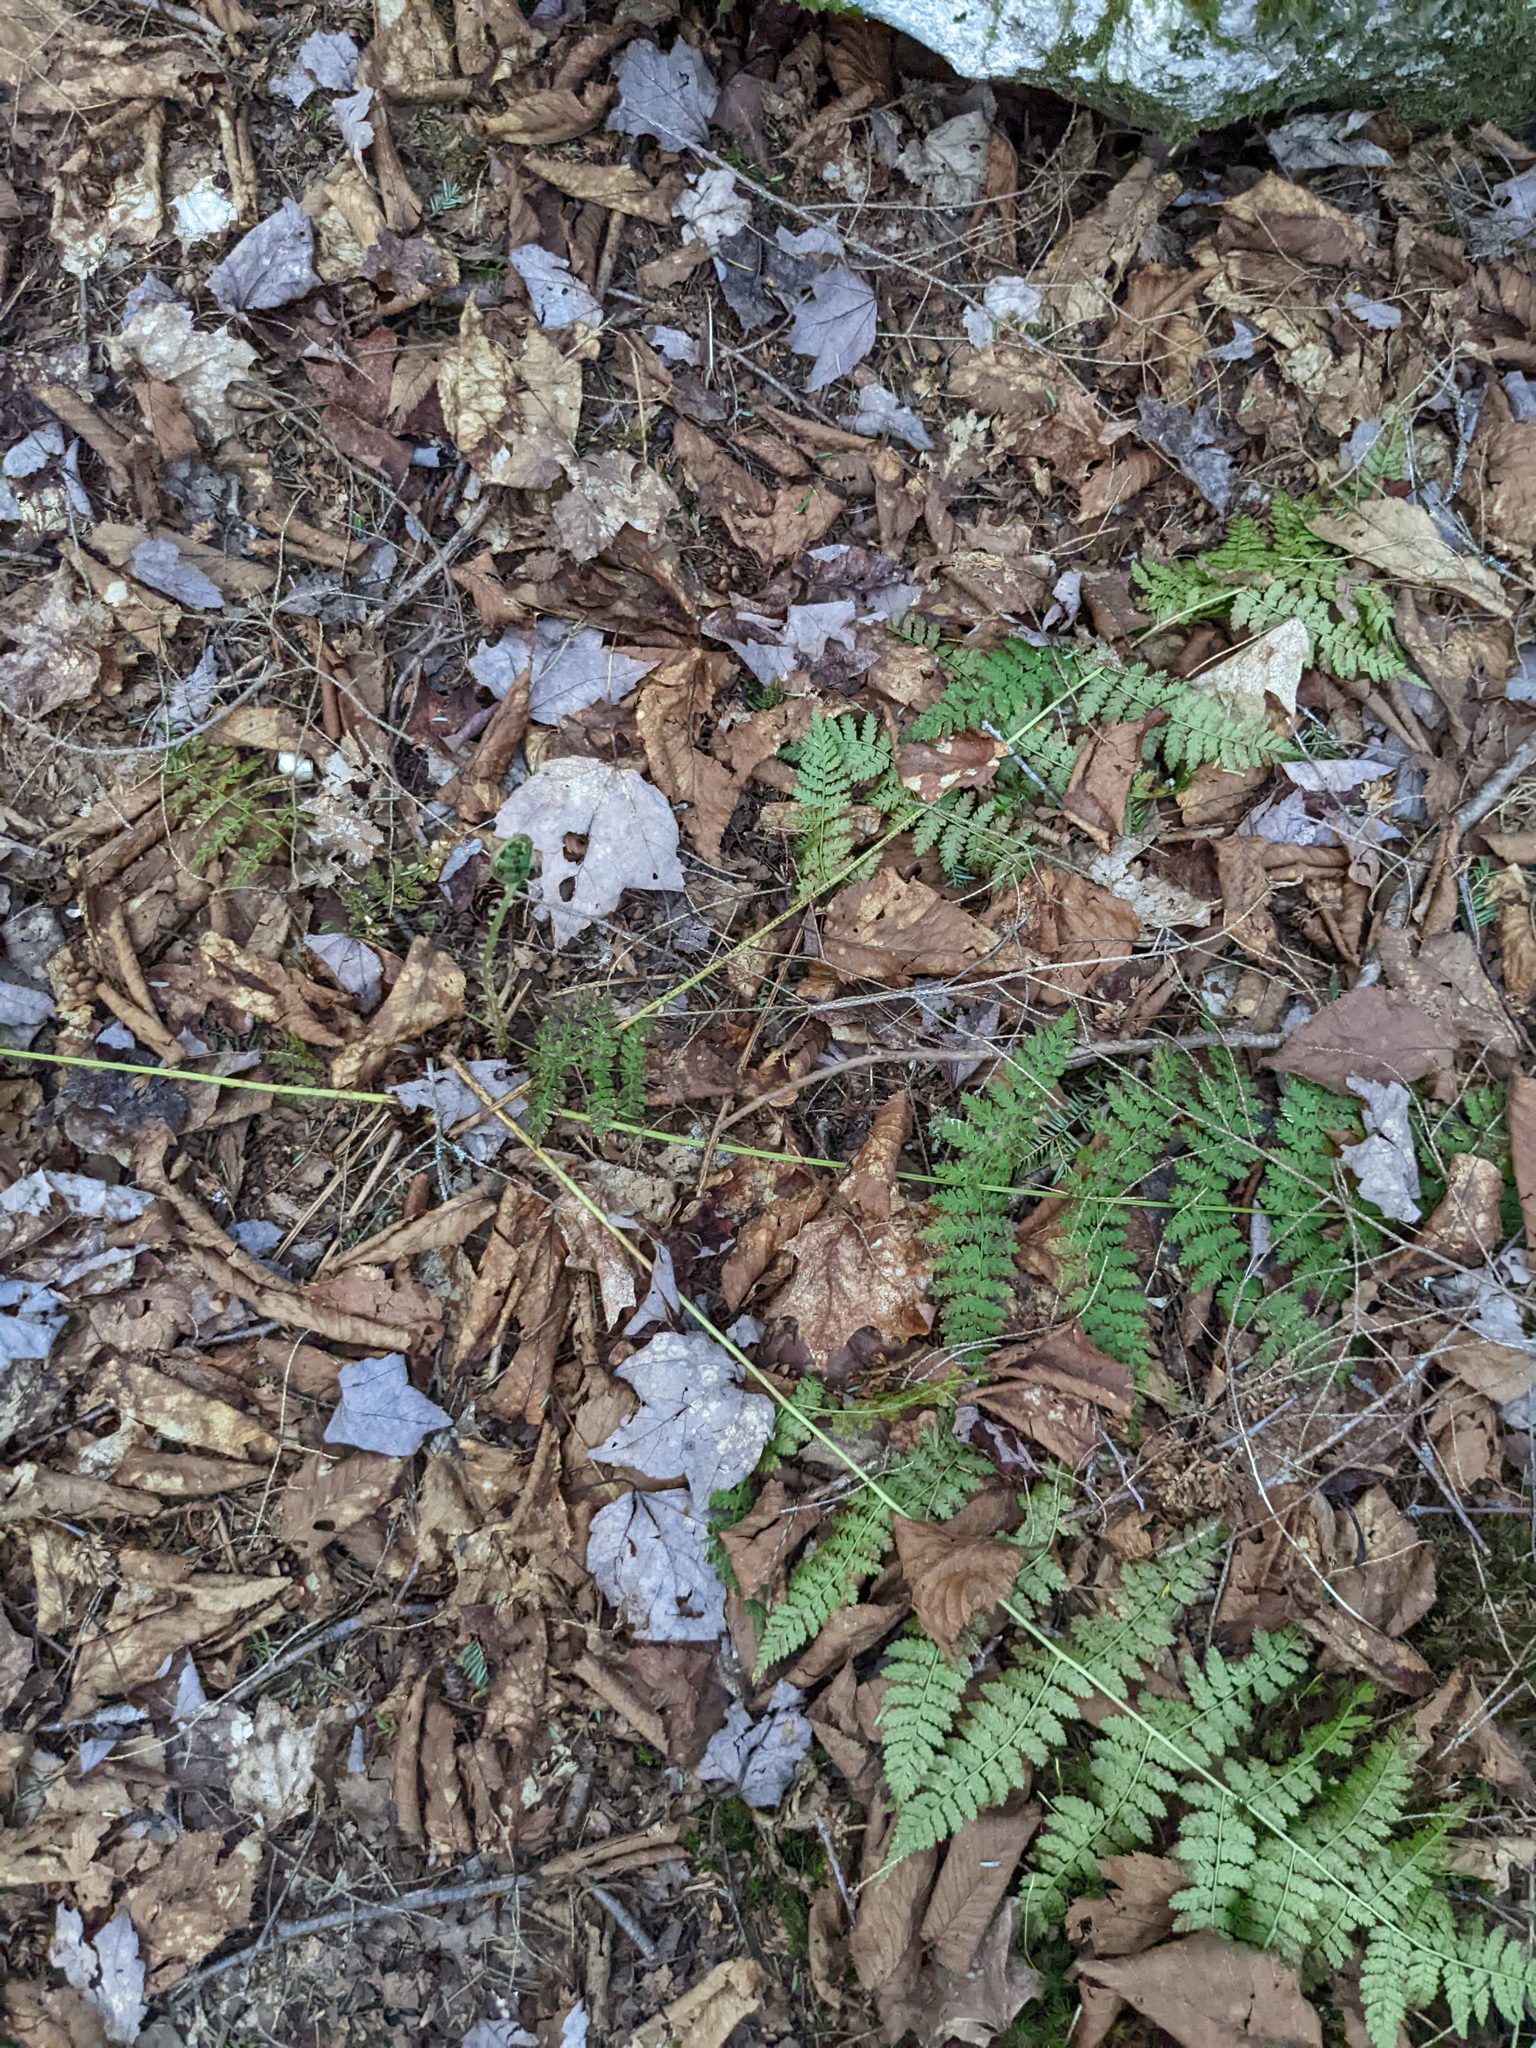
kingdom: Plantae
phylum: Tracheophyta
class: Polypodiopsida
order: Polypodiales
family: Dryopteridaceae
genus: Dryopteris
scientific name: Dryopteris intermedia
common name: Evergreen wood fern
